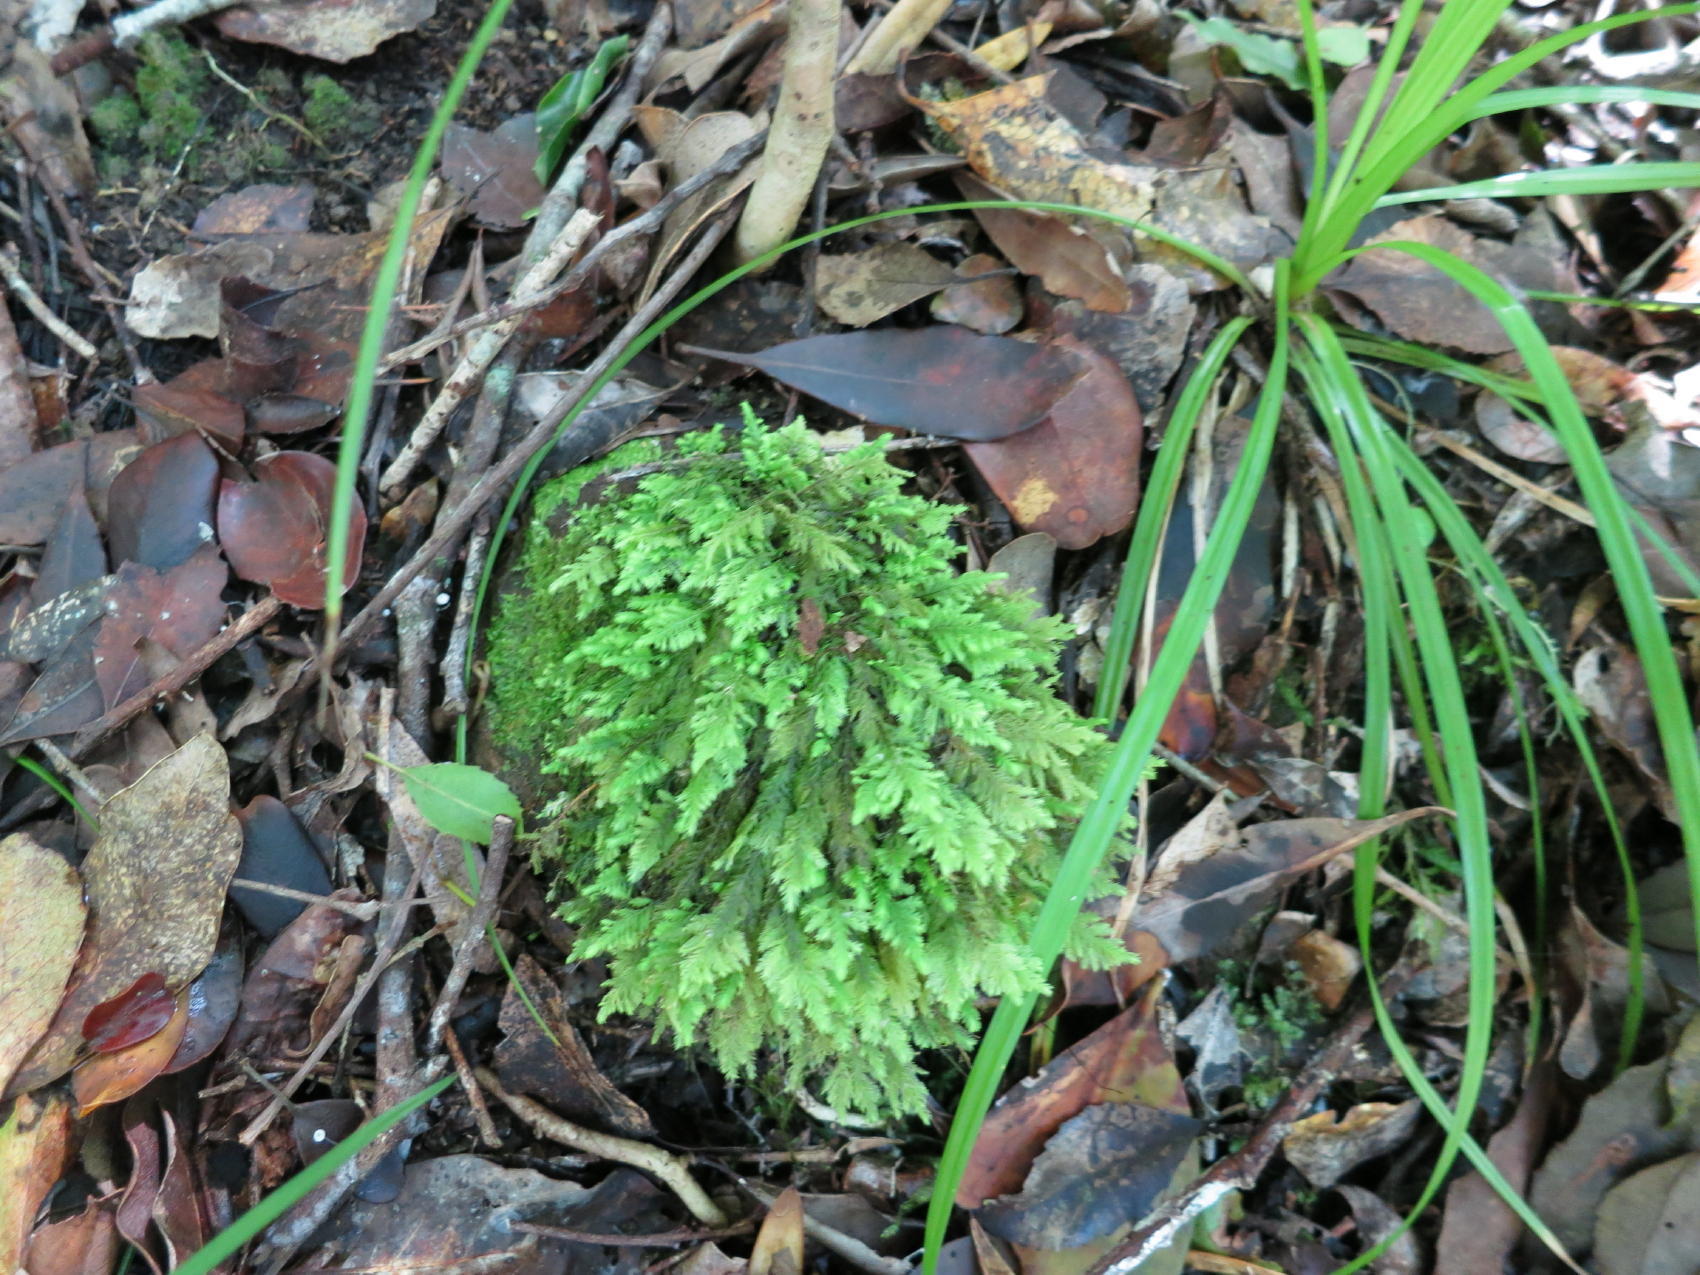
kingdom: Plantae
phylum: Bryophyta
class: Bryopsida
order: Hypopterygiales
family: Hypopterygiaceae
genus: Lopidium
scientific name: Lopidium struthiopteris
